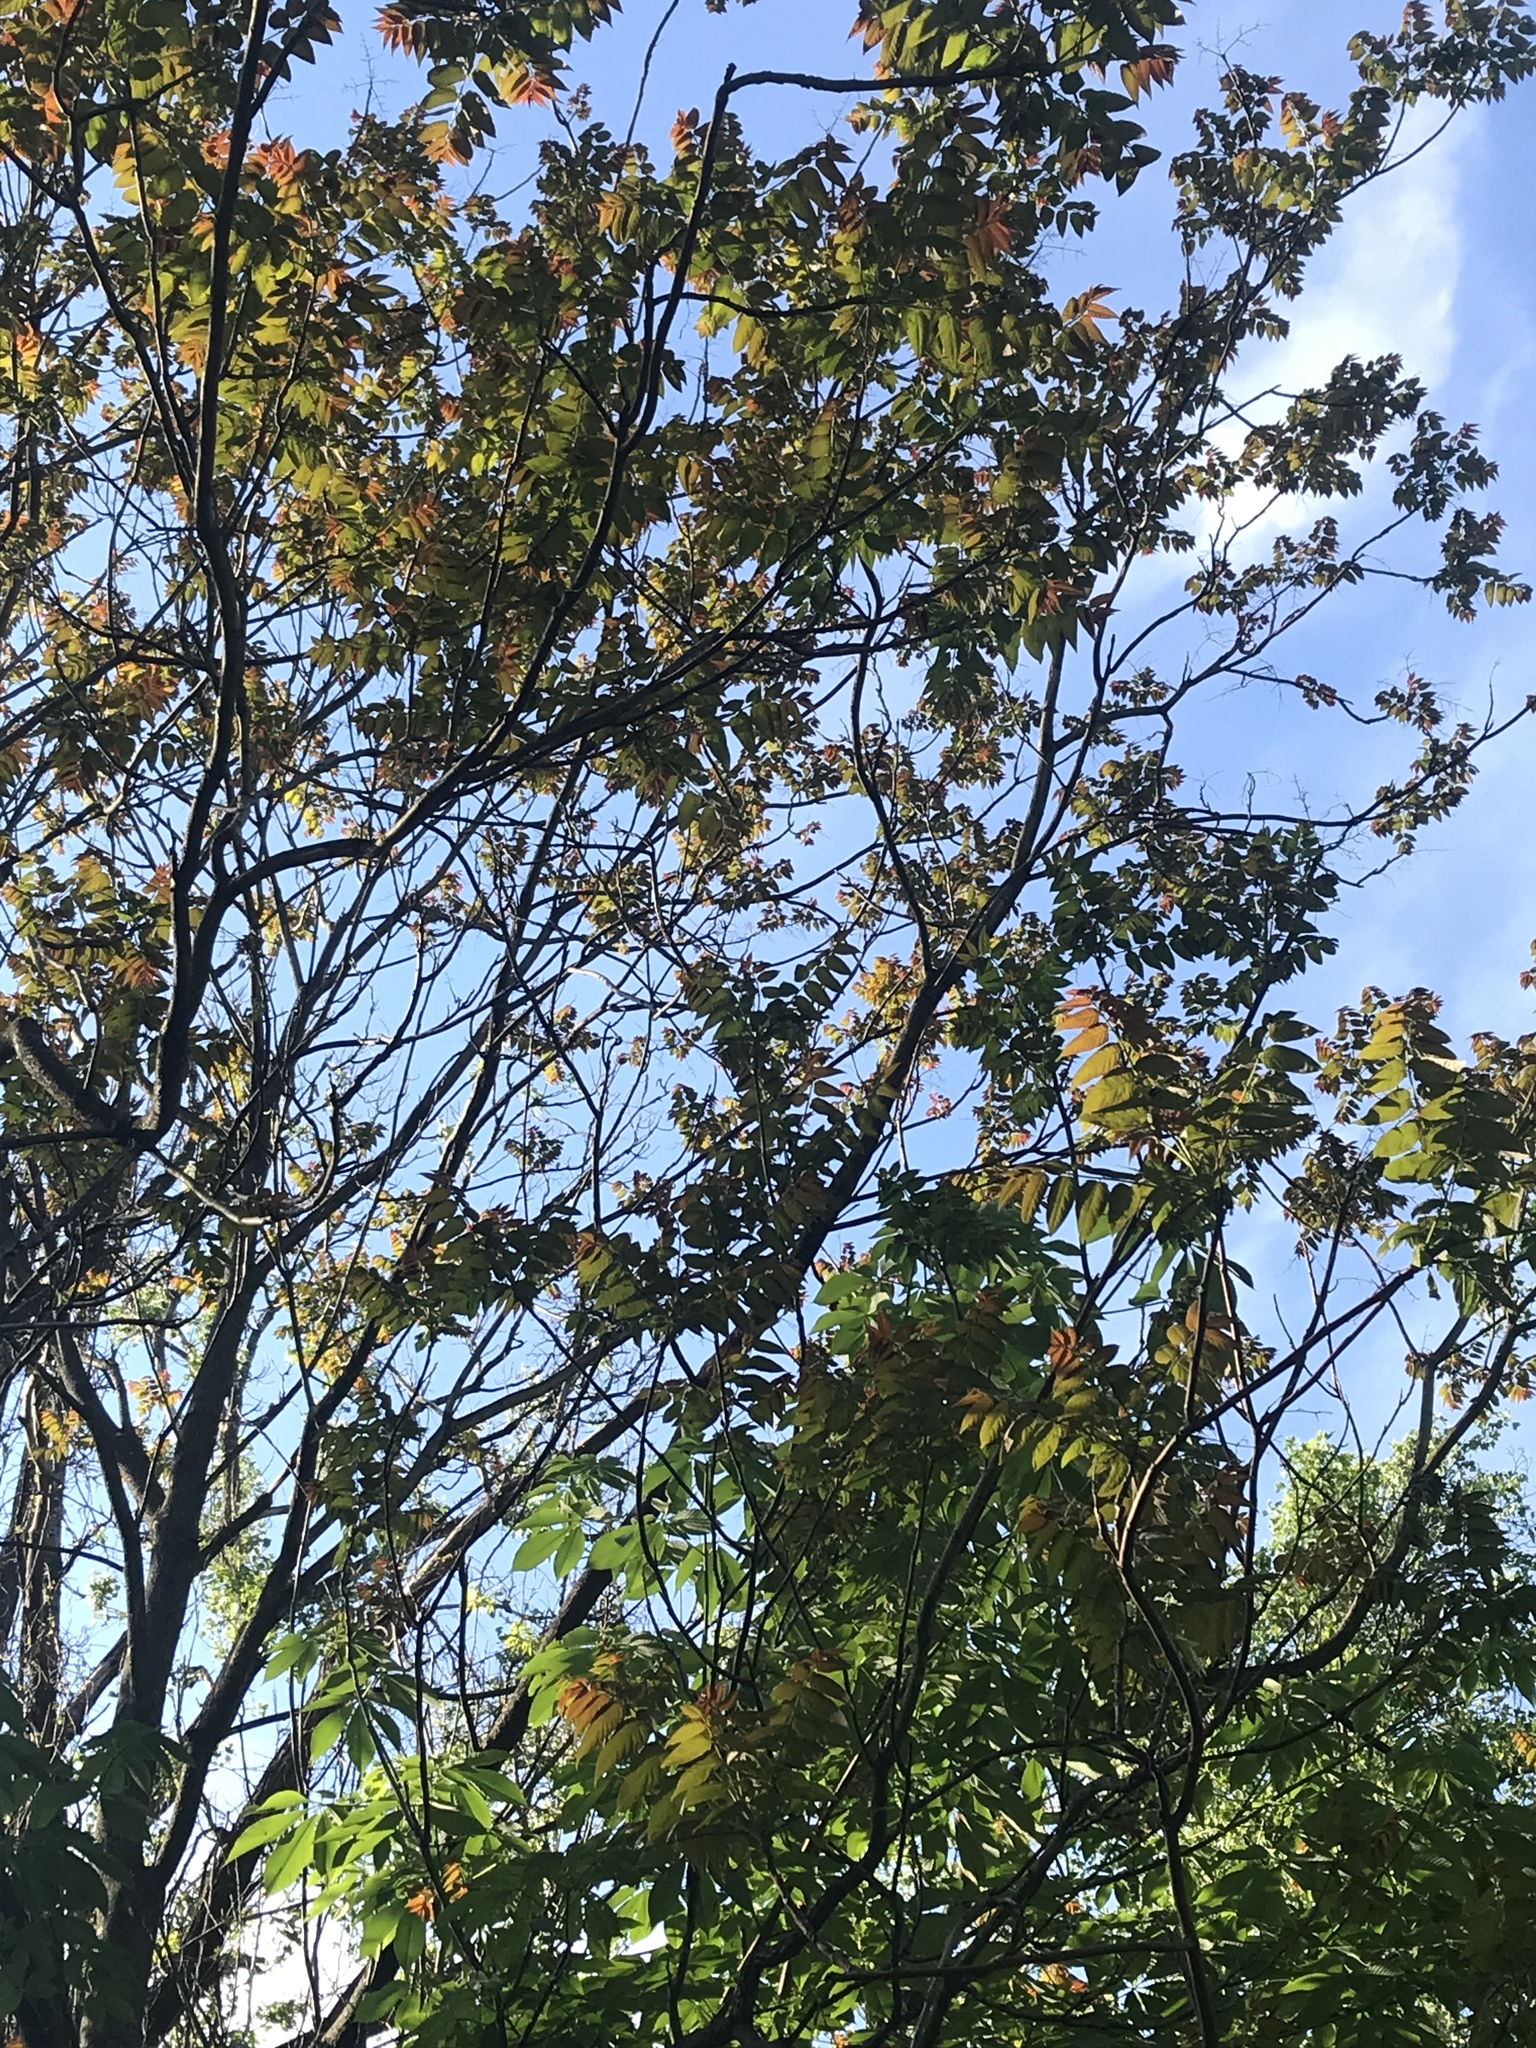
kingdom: Plantae
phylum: Tracheophyta
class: Magnoliopsida
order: Sapindales
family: Simaroubaceae
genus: Ailanthus
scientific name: Ailanthus altissima
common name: Tree-of-heaven
